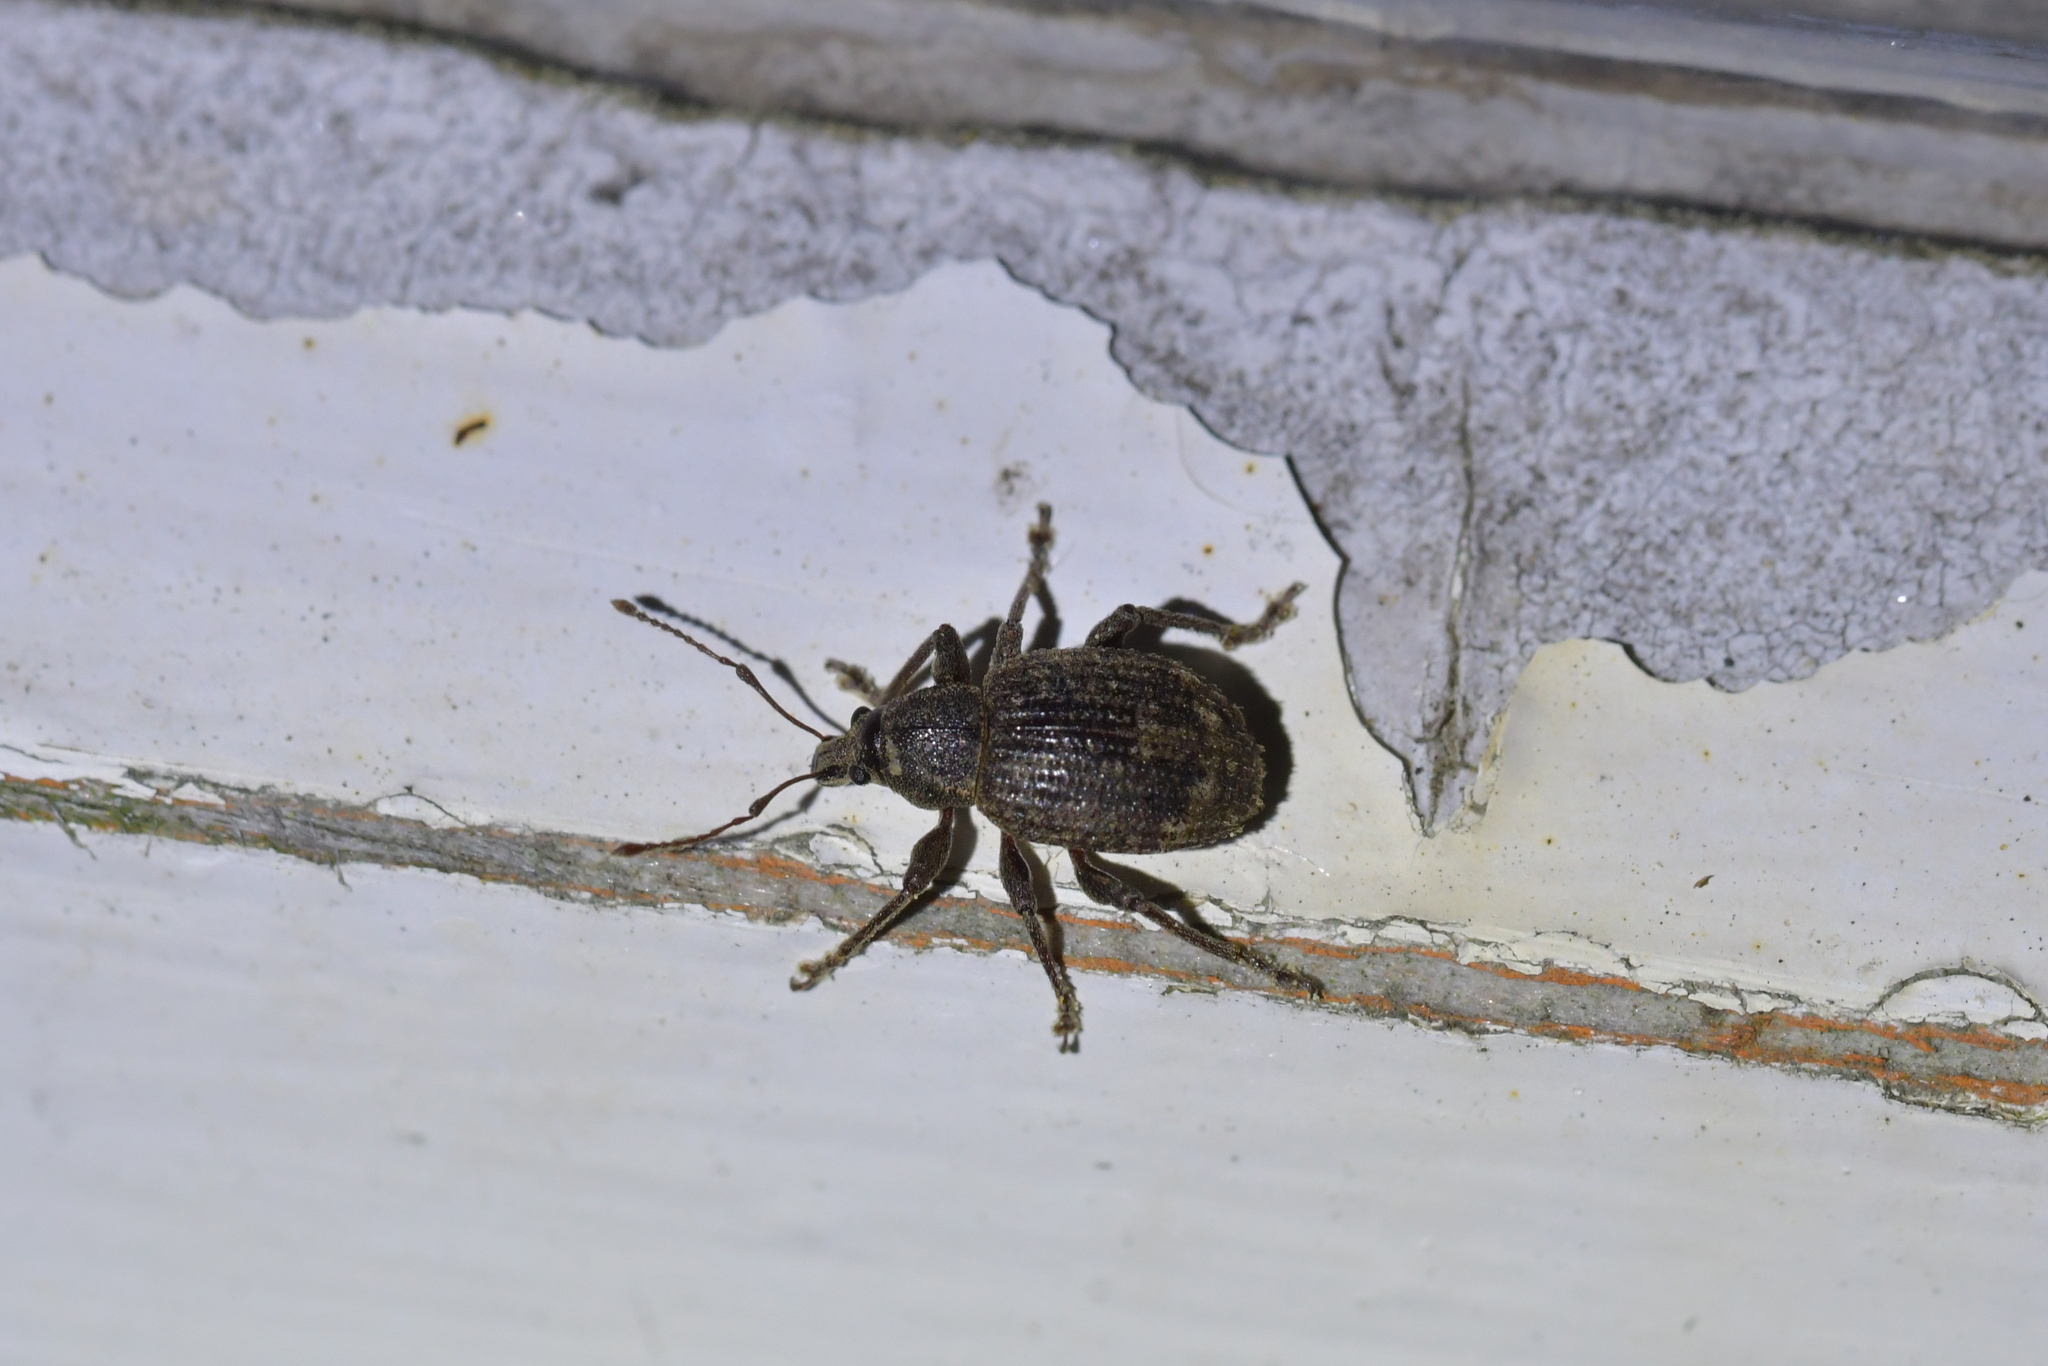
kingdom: Animalia
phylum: Arthropoda
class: Insecta
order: Coleoptera
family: Curculionidae
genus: Phlyctinus
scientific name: Phlyctinus callosus
